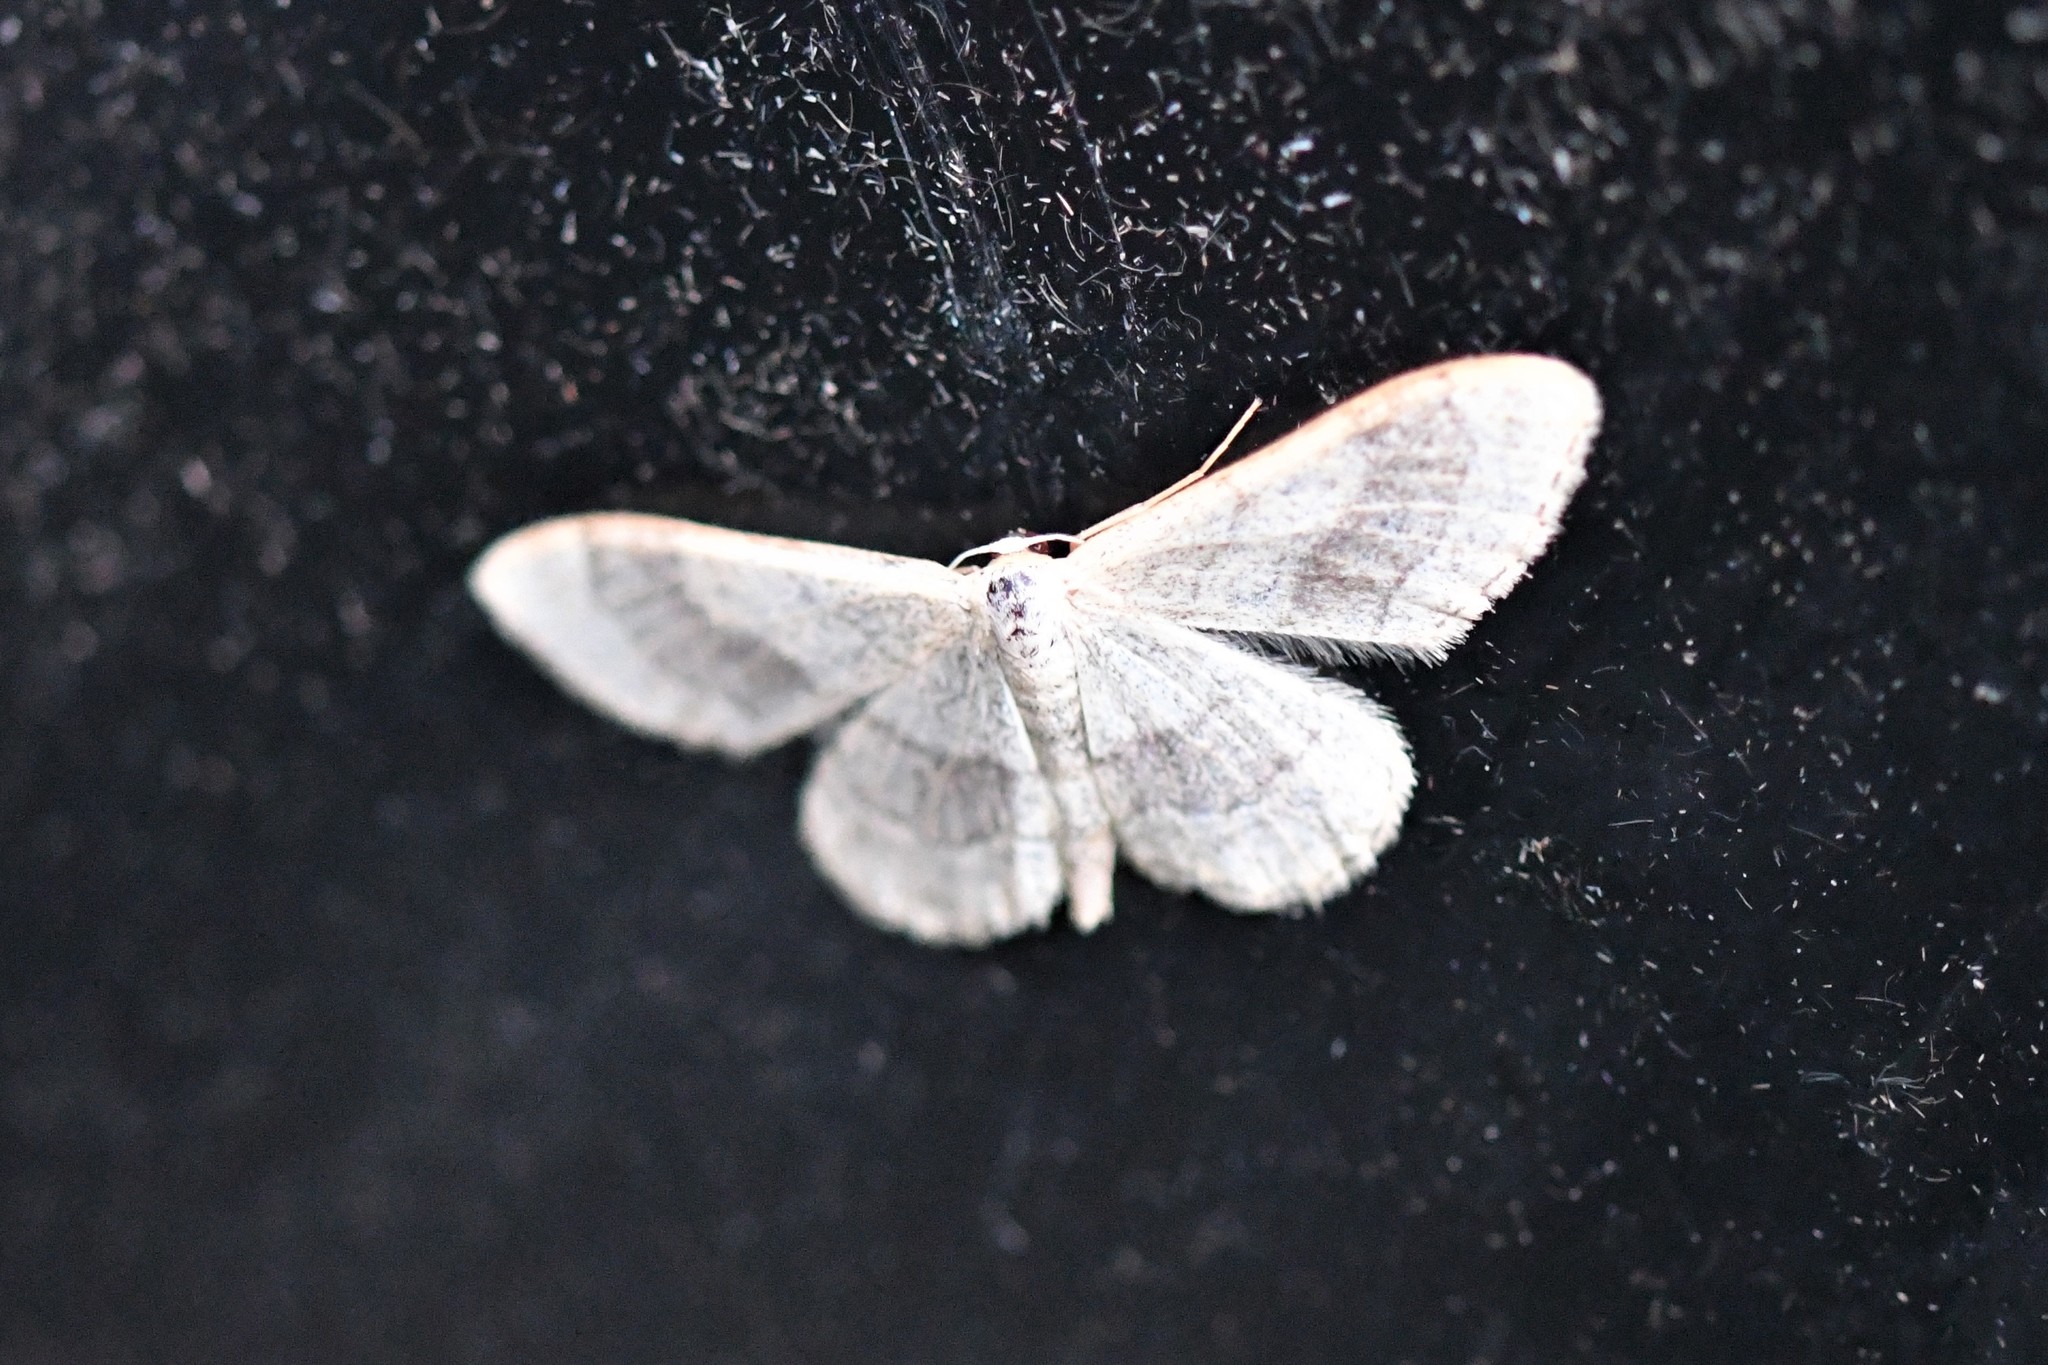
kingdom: Animalia
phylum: Arthropoda
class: Insecta
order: Lepidoptera
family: Geometridae
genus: Idaea
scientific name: Idaea aversata
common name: Riband wave
